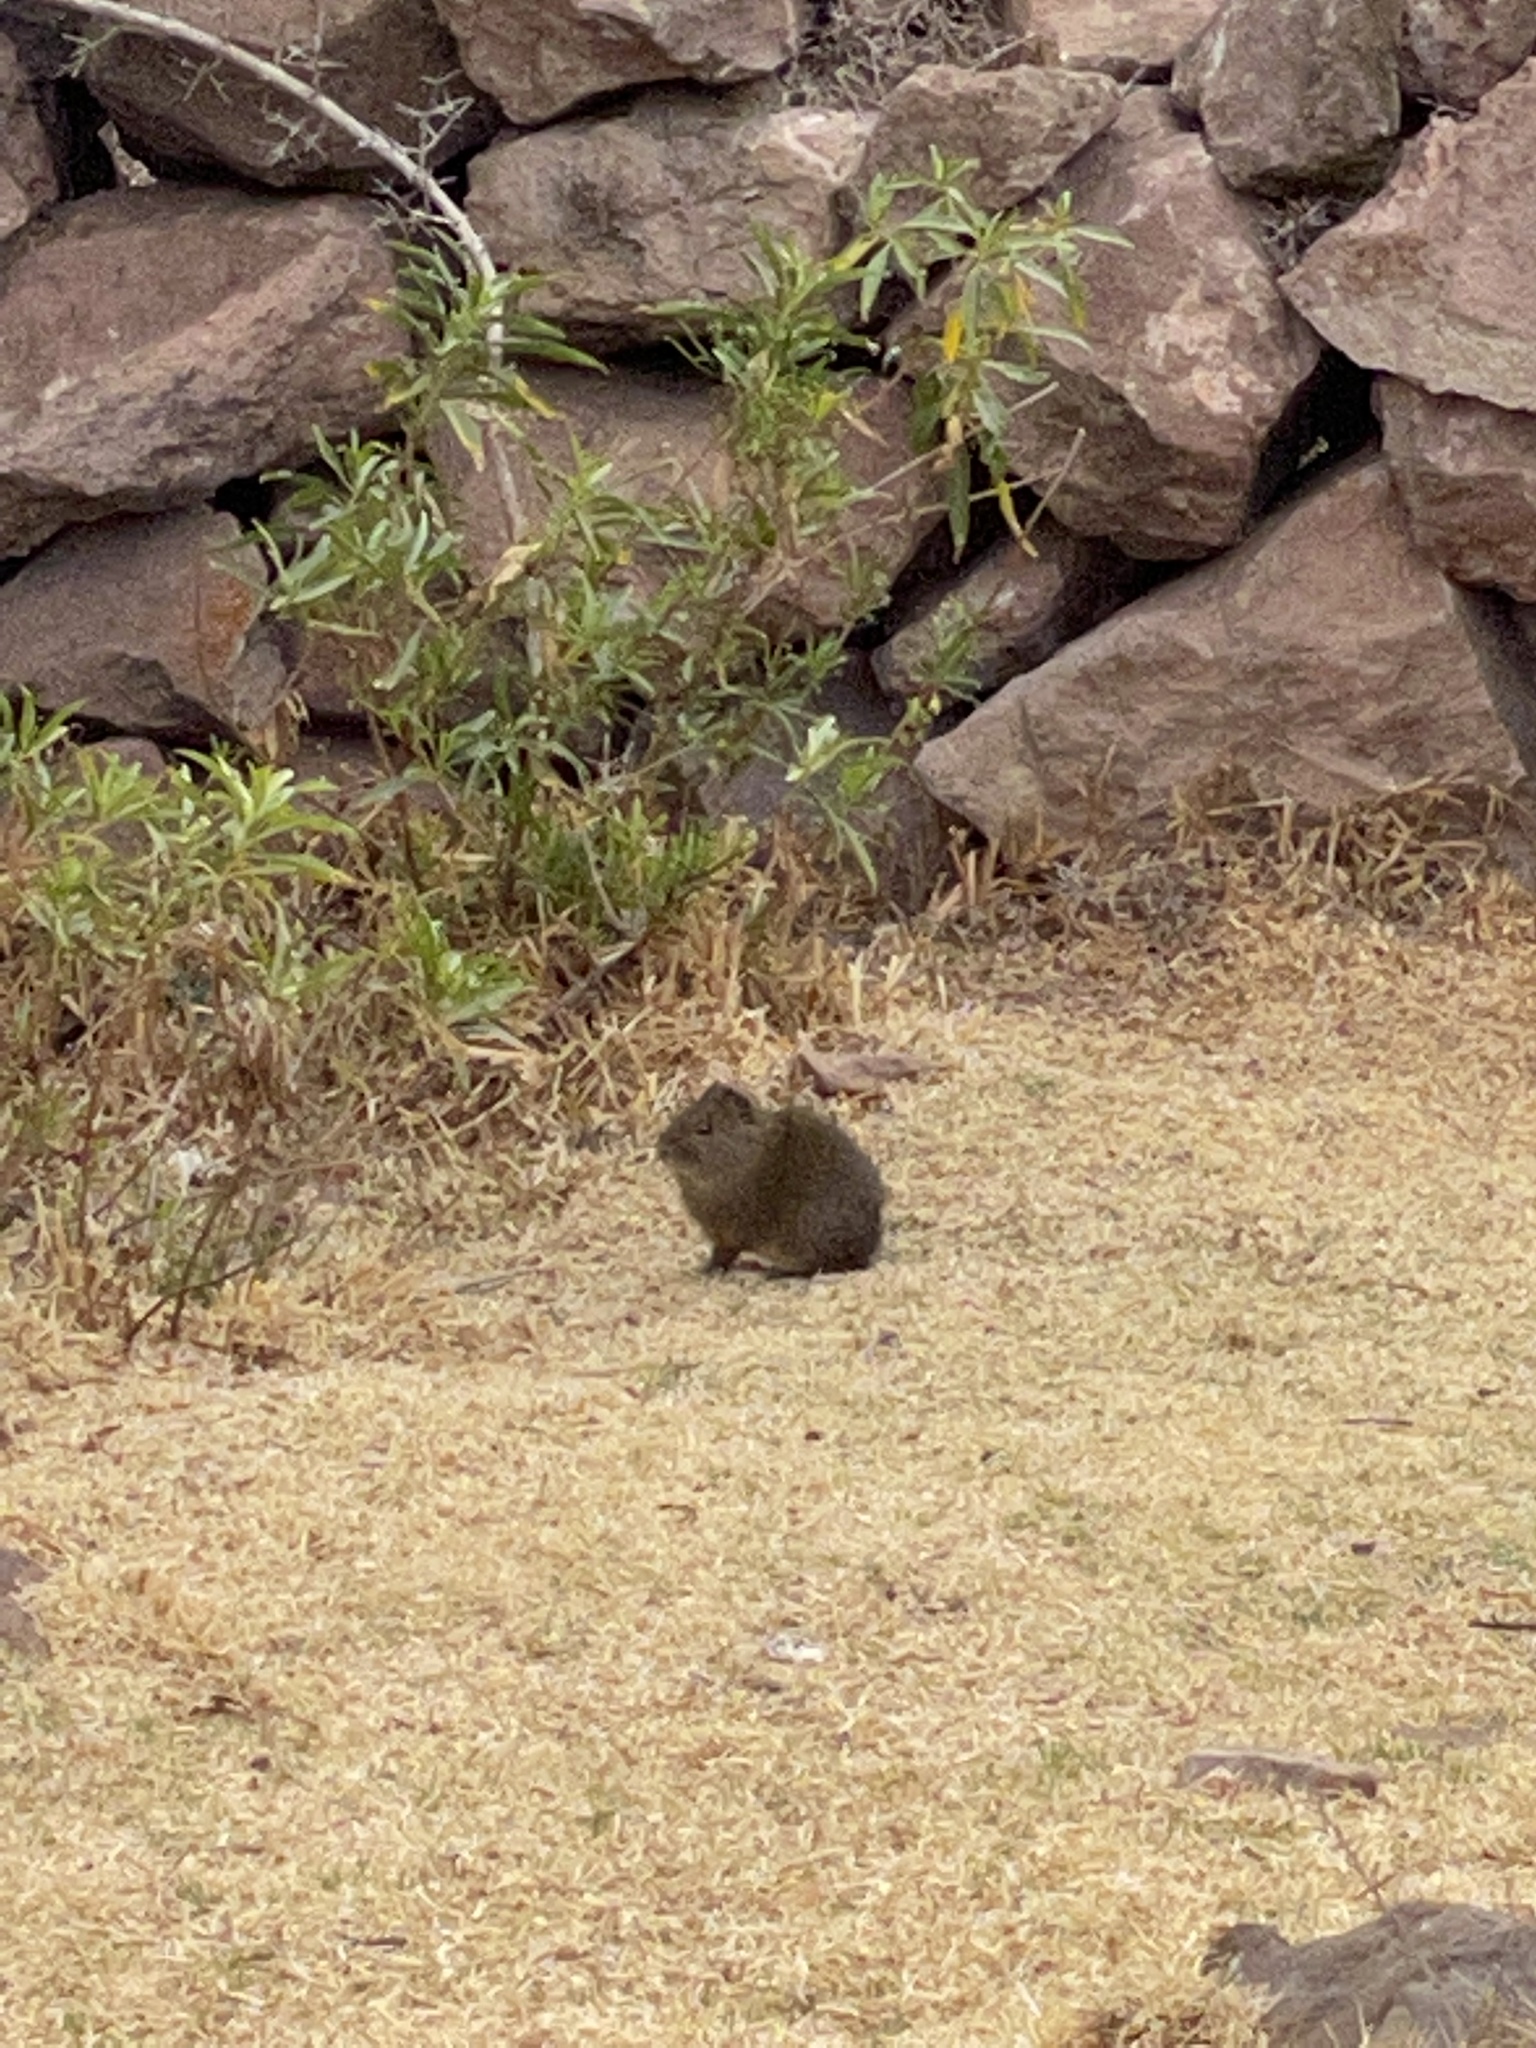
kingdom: Animalia
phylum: Chordata
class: Mammalia
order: Rodentia
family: Caviidae
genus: Cavia
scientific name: Cavia tschudii
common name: Montane guinea pig
